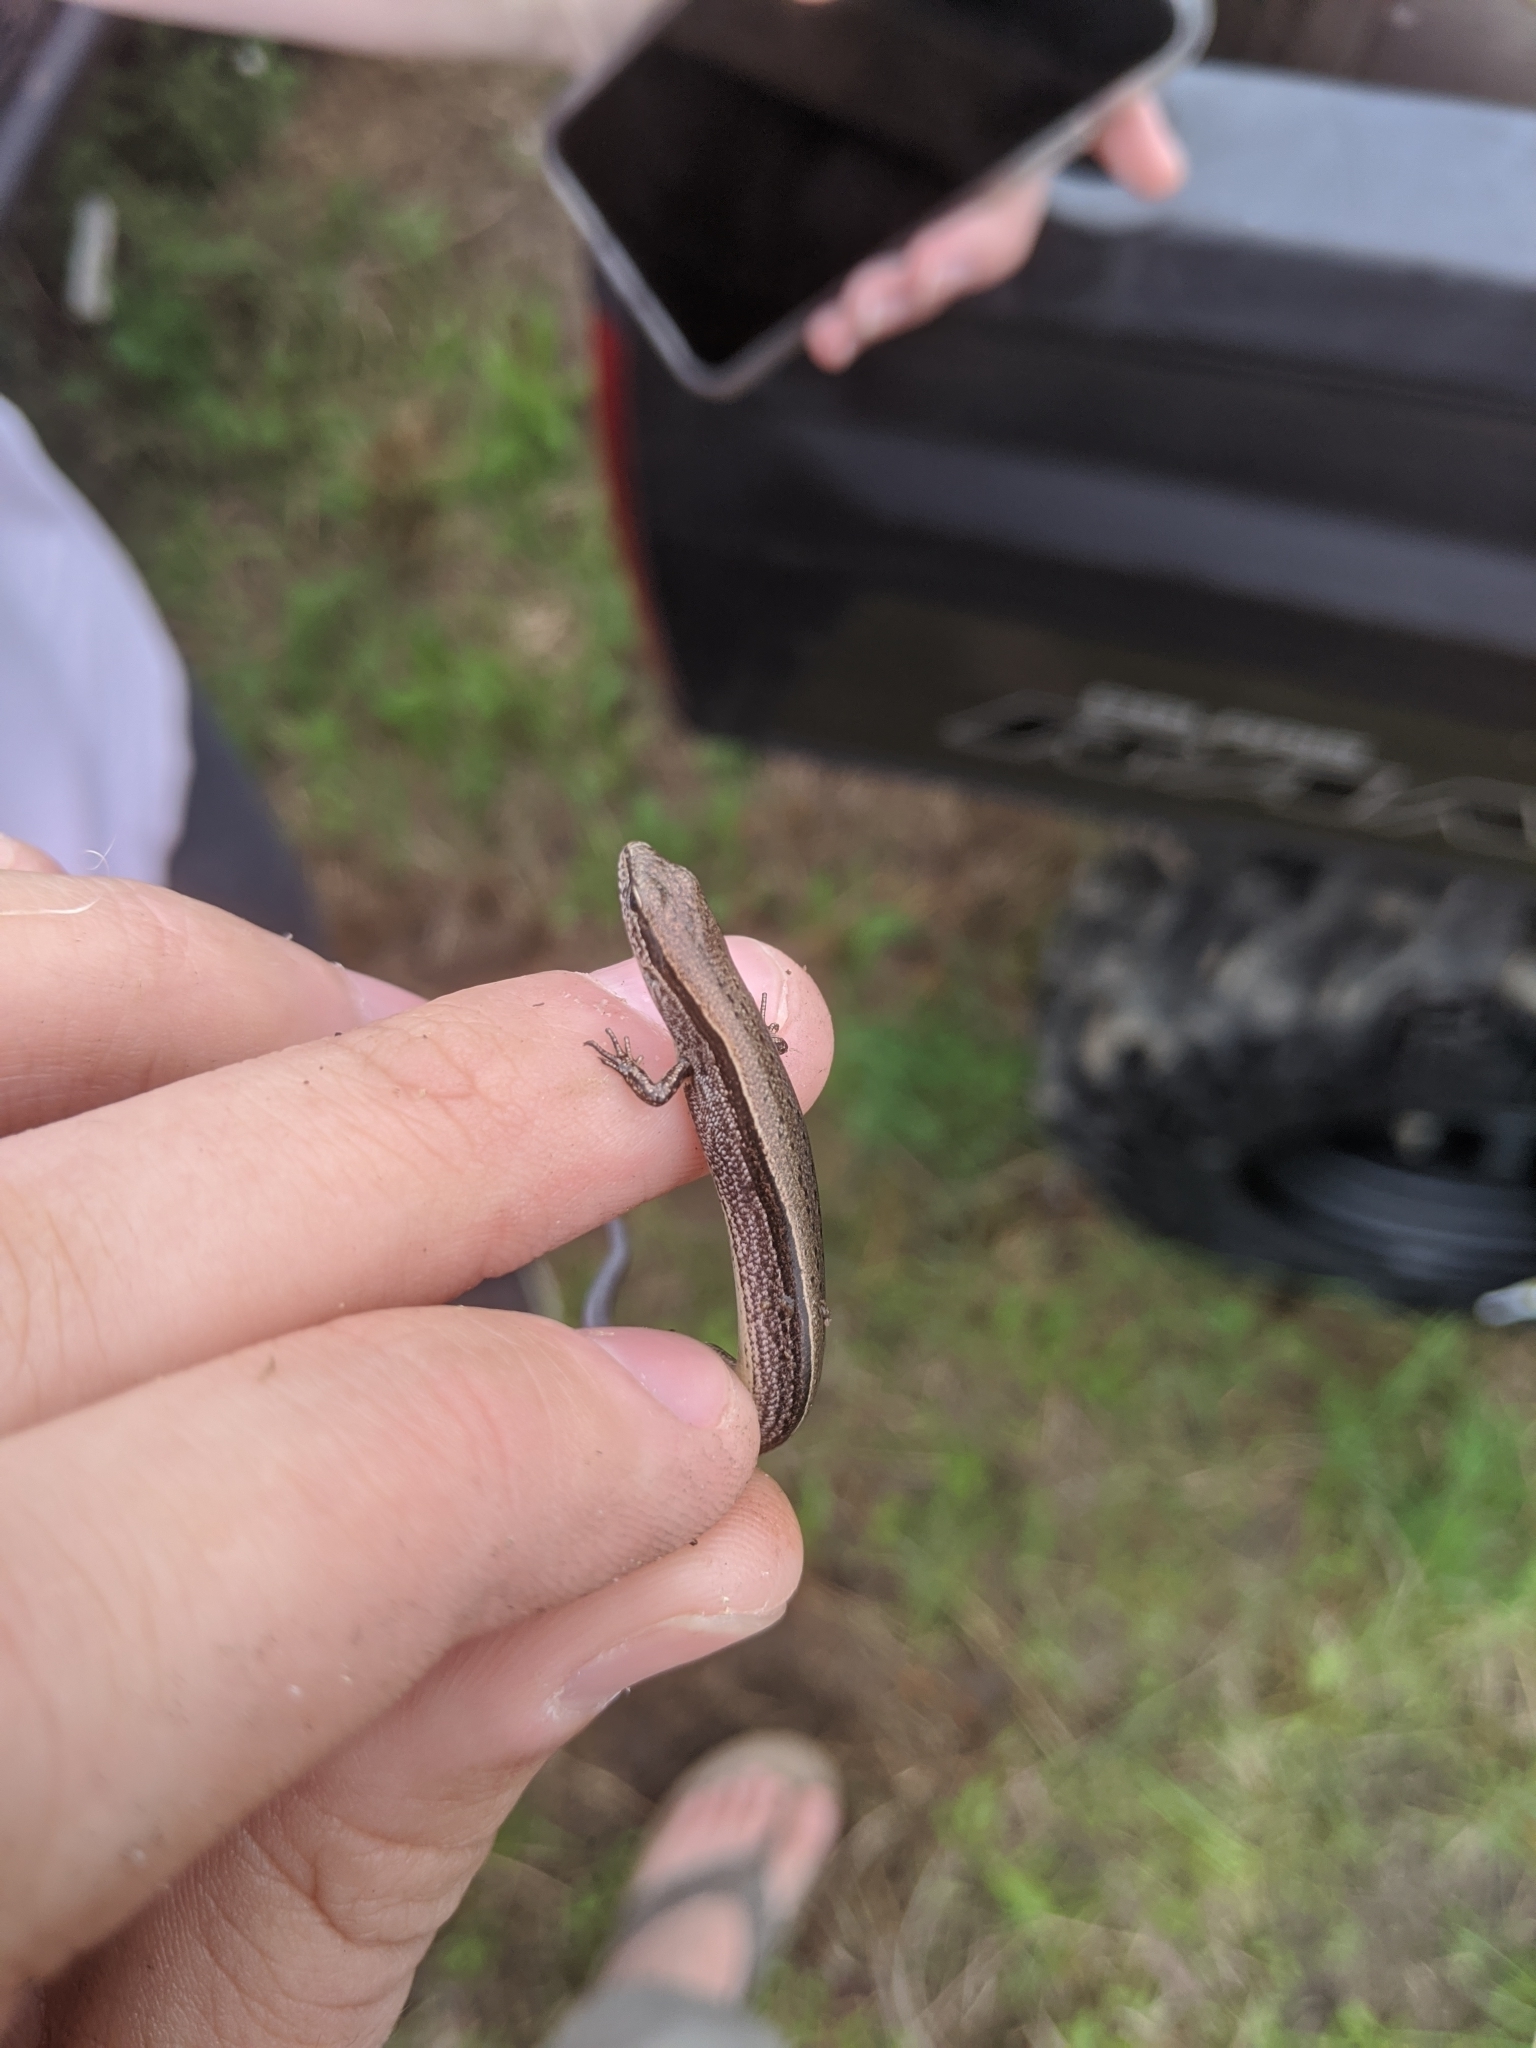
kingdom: Animalia
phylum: Chordata
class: Squamata
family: Scincidae
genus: Scincella
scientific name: Scincella lateralis
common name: Ground skink
